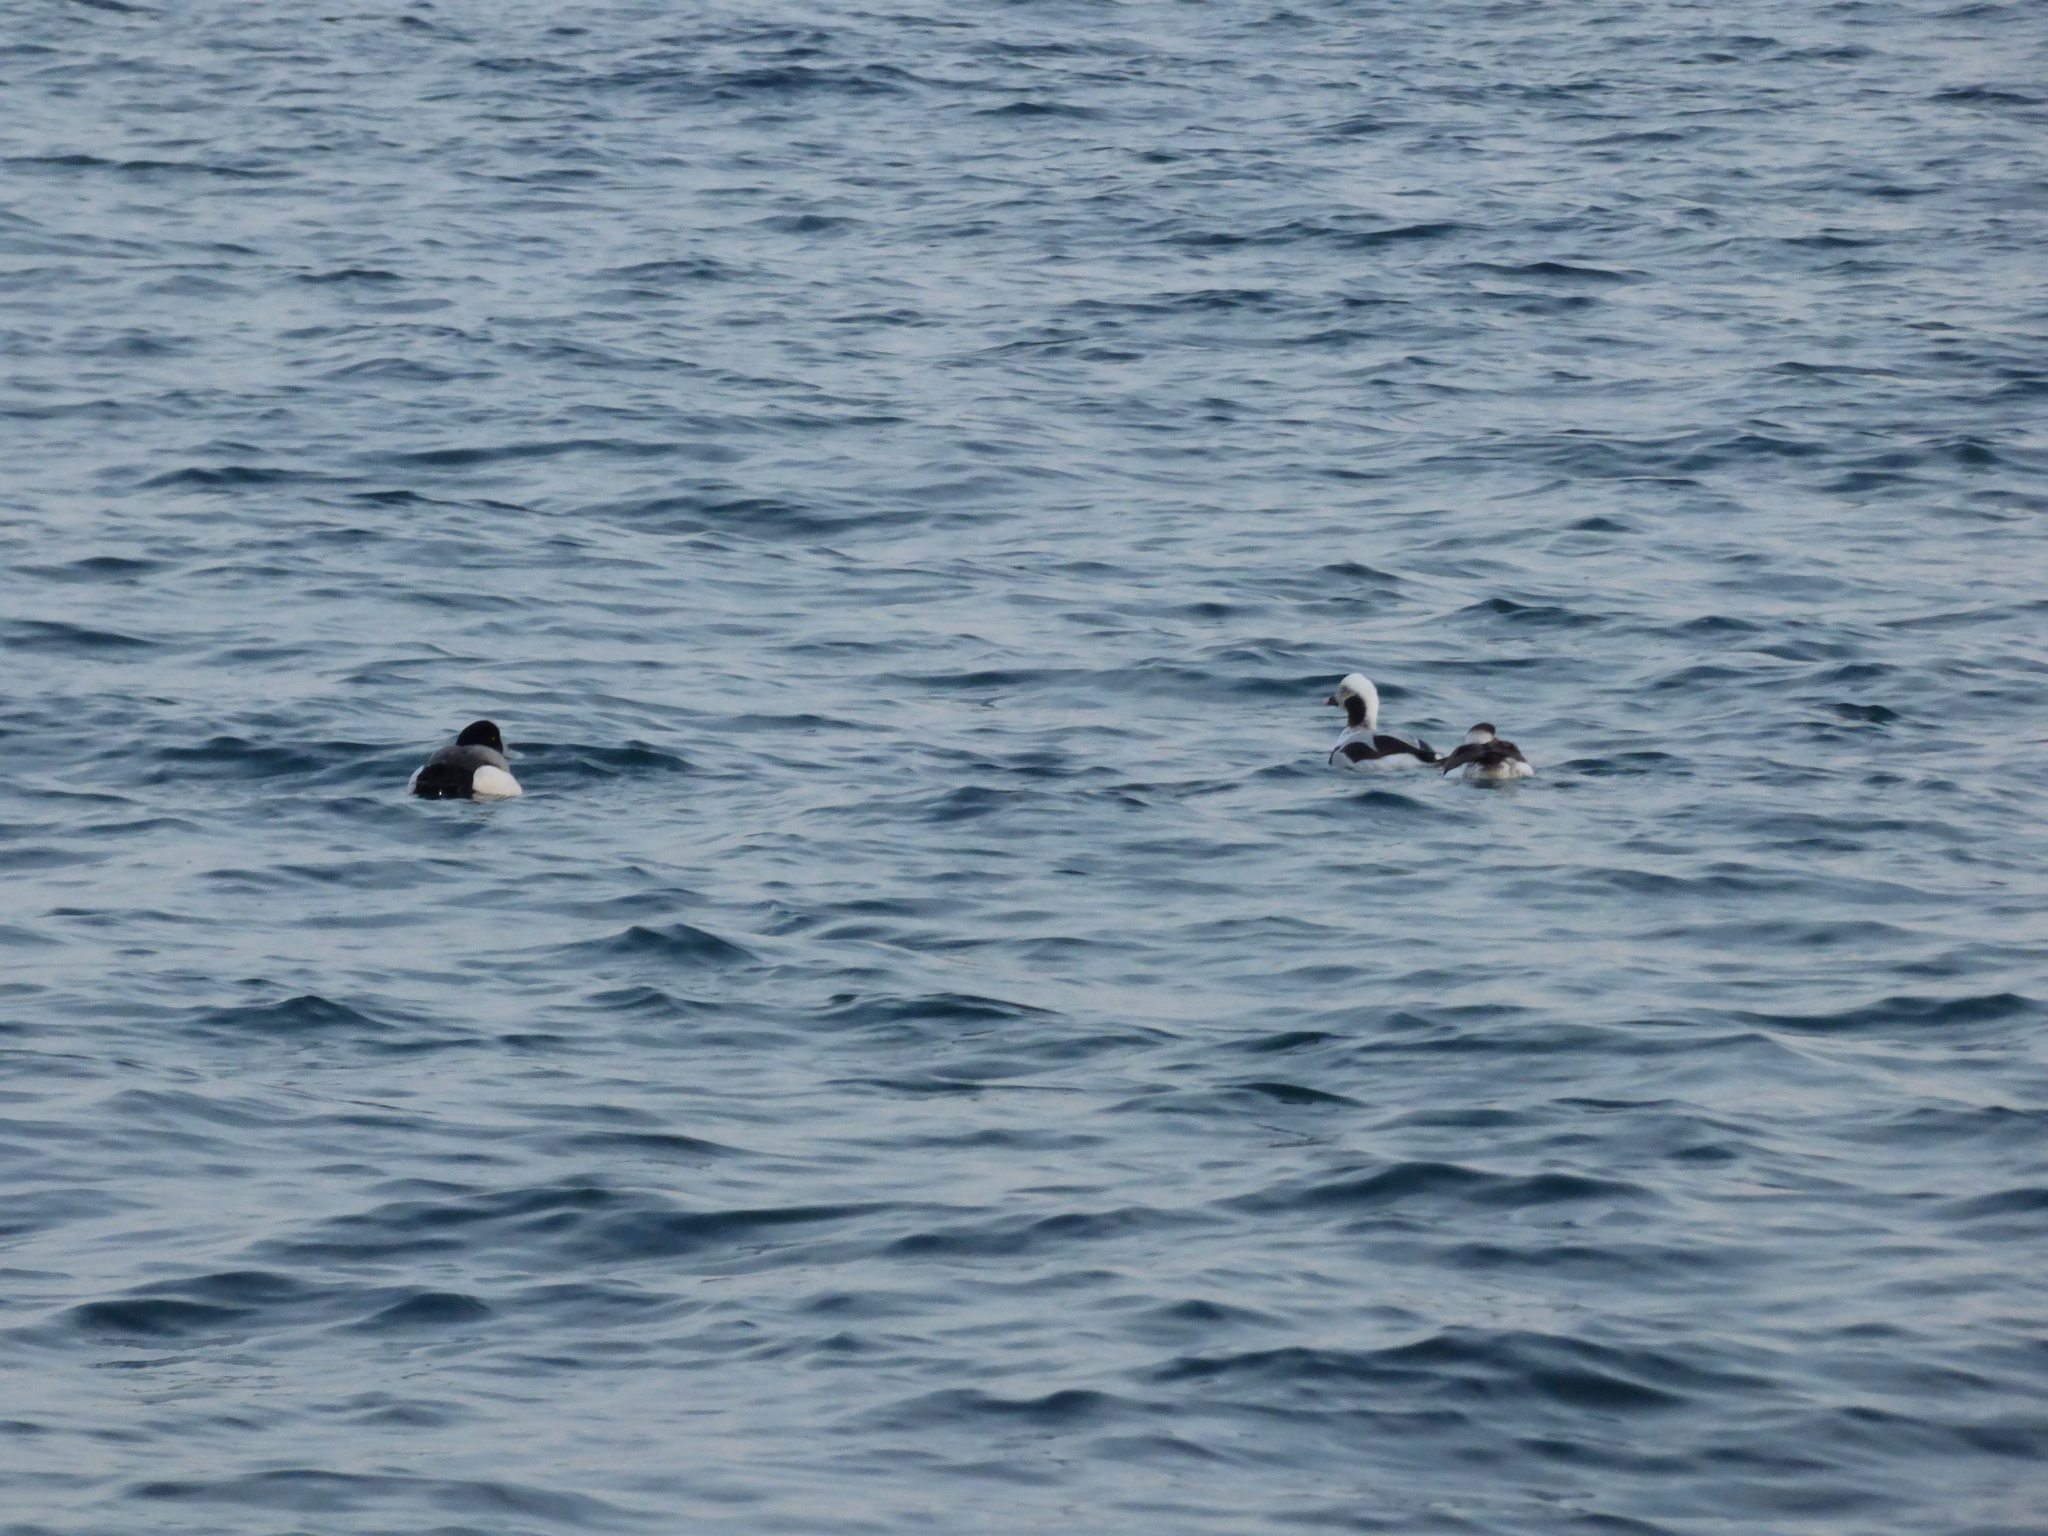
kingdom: Animalia
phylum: Chordata
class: Aves
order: Anseriformes
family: Anatidae
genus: Clangula
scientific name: Clangula hyemalis
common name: Long-tailed duck
